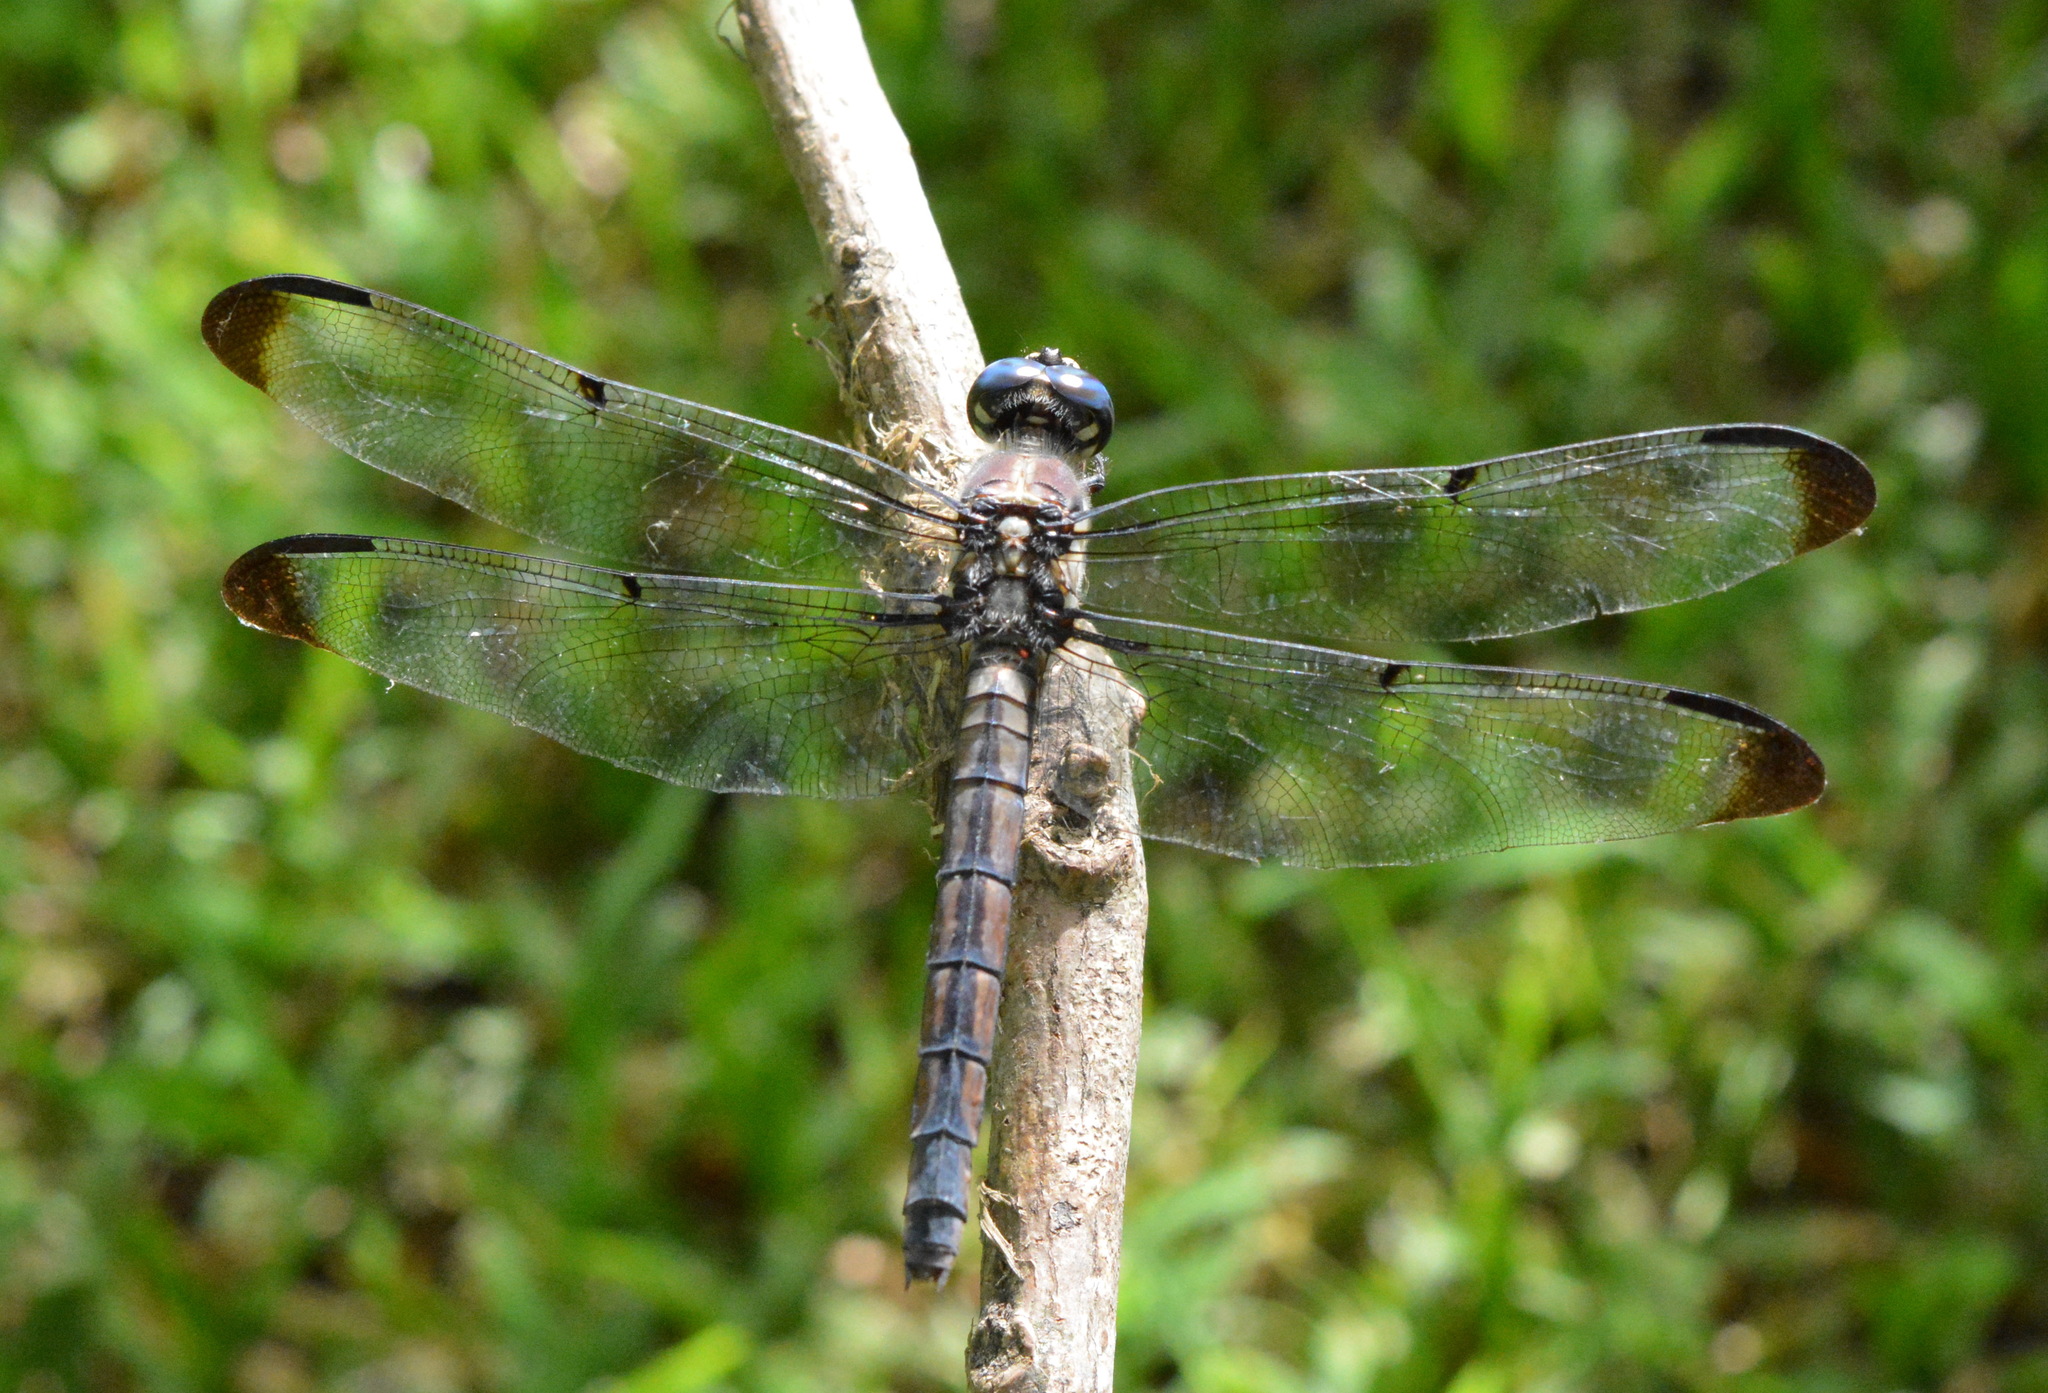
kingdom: Animalia
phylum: Arthropoda
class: Insecta
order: Odonata
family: Libellulidae
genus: Libellula
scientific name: Libellula vibrans
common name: Great blue skimmer
